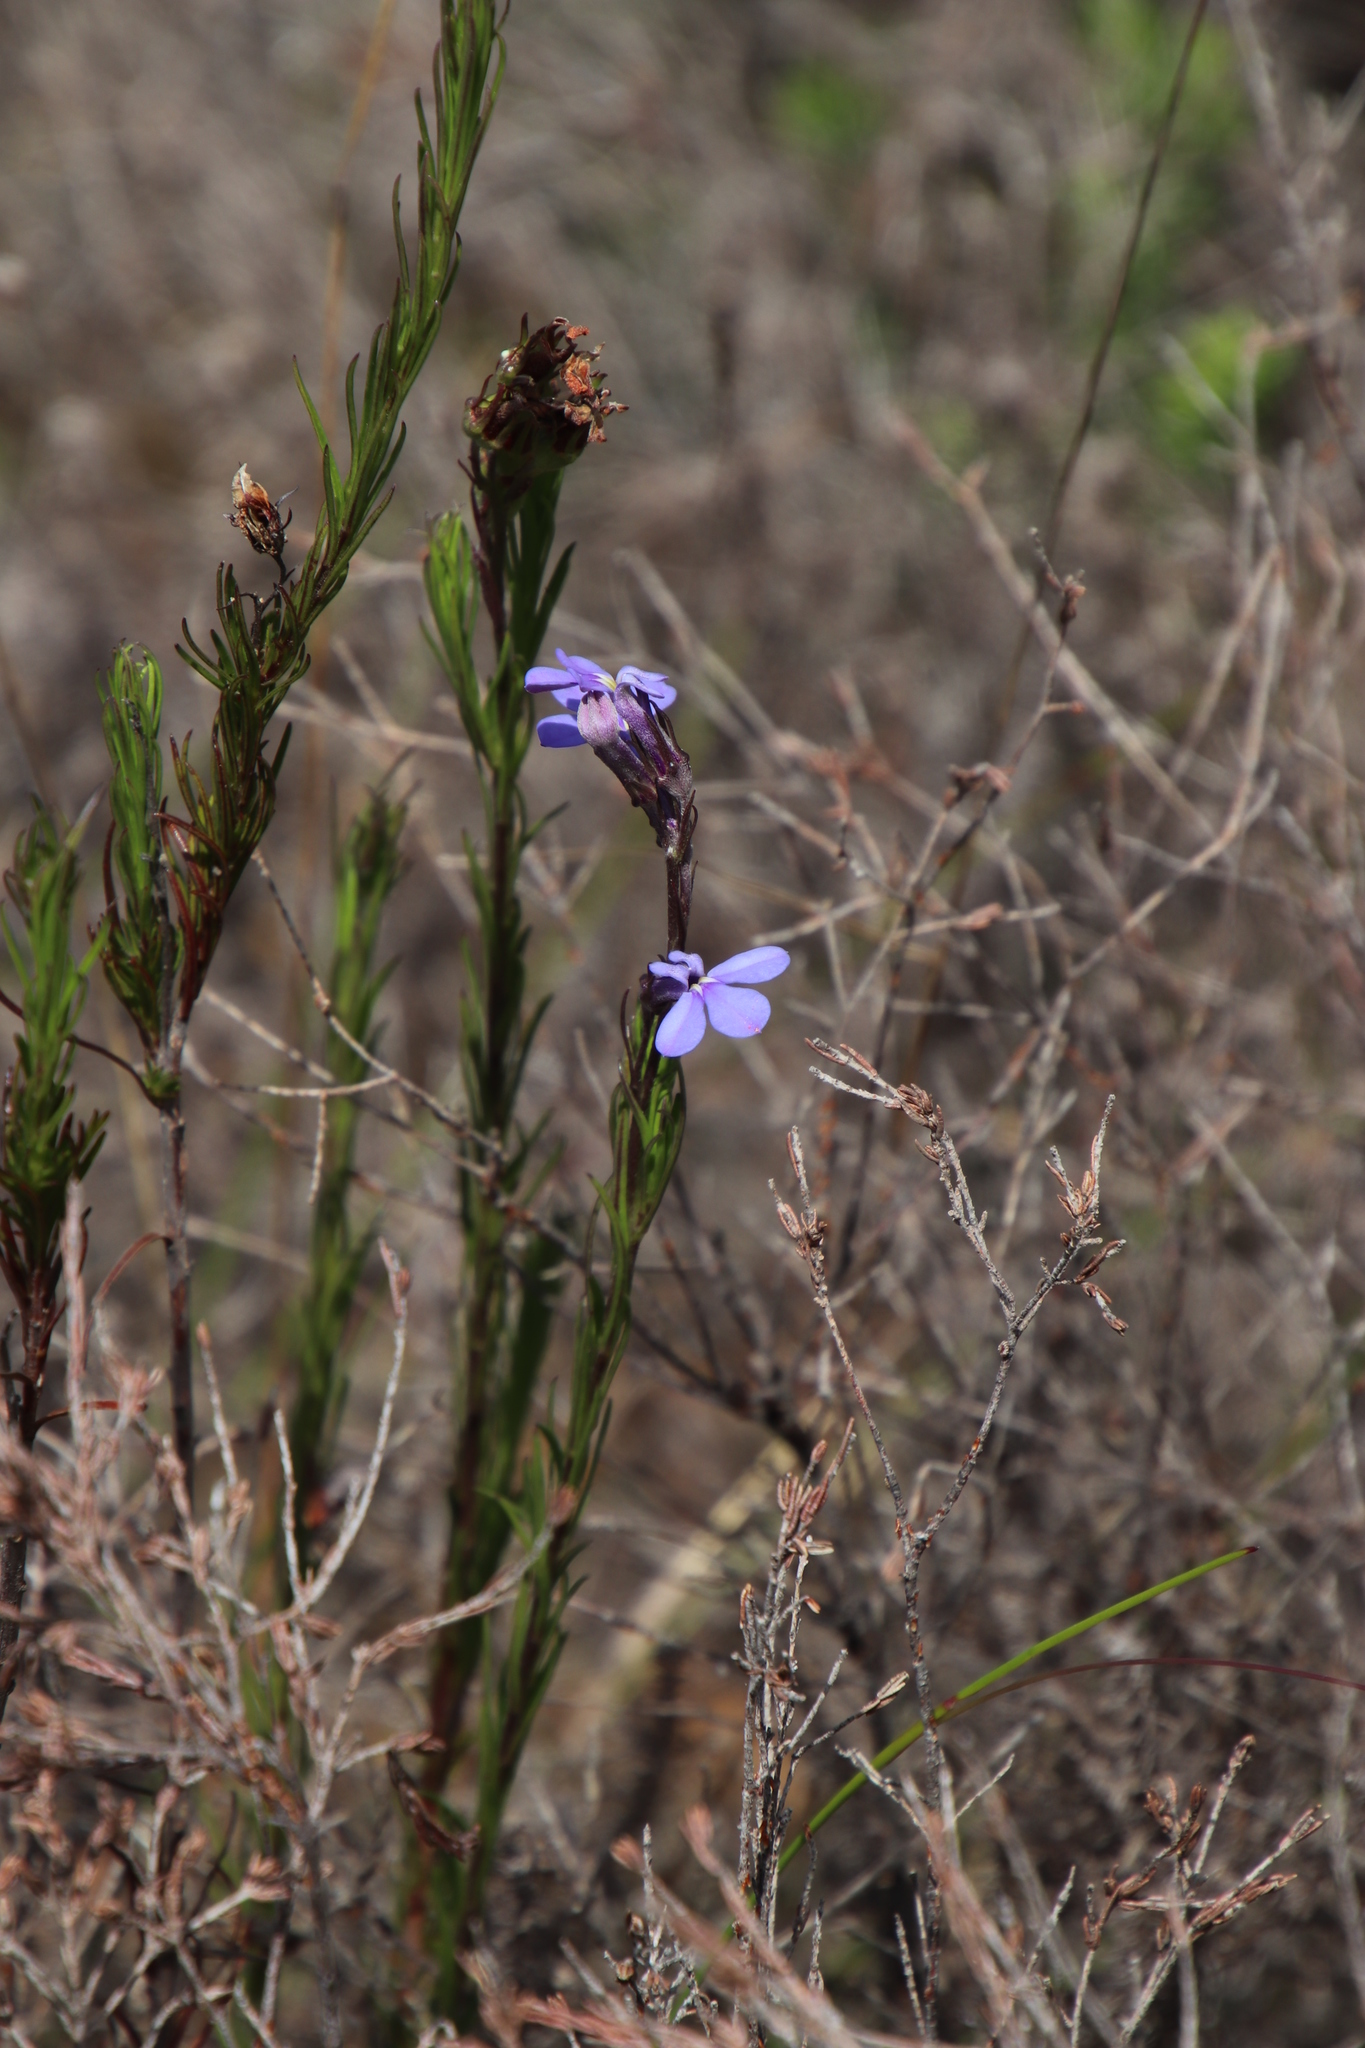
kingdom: Plantae
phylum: Tracheophyta
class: Magnoliopsida
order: Asterales
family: Campanulaceae
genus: Lobelia
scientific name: Lobelia pinifolia
